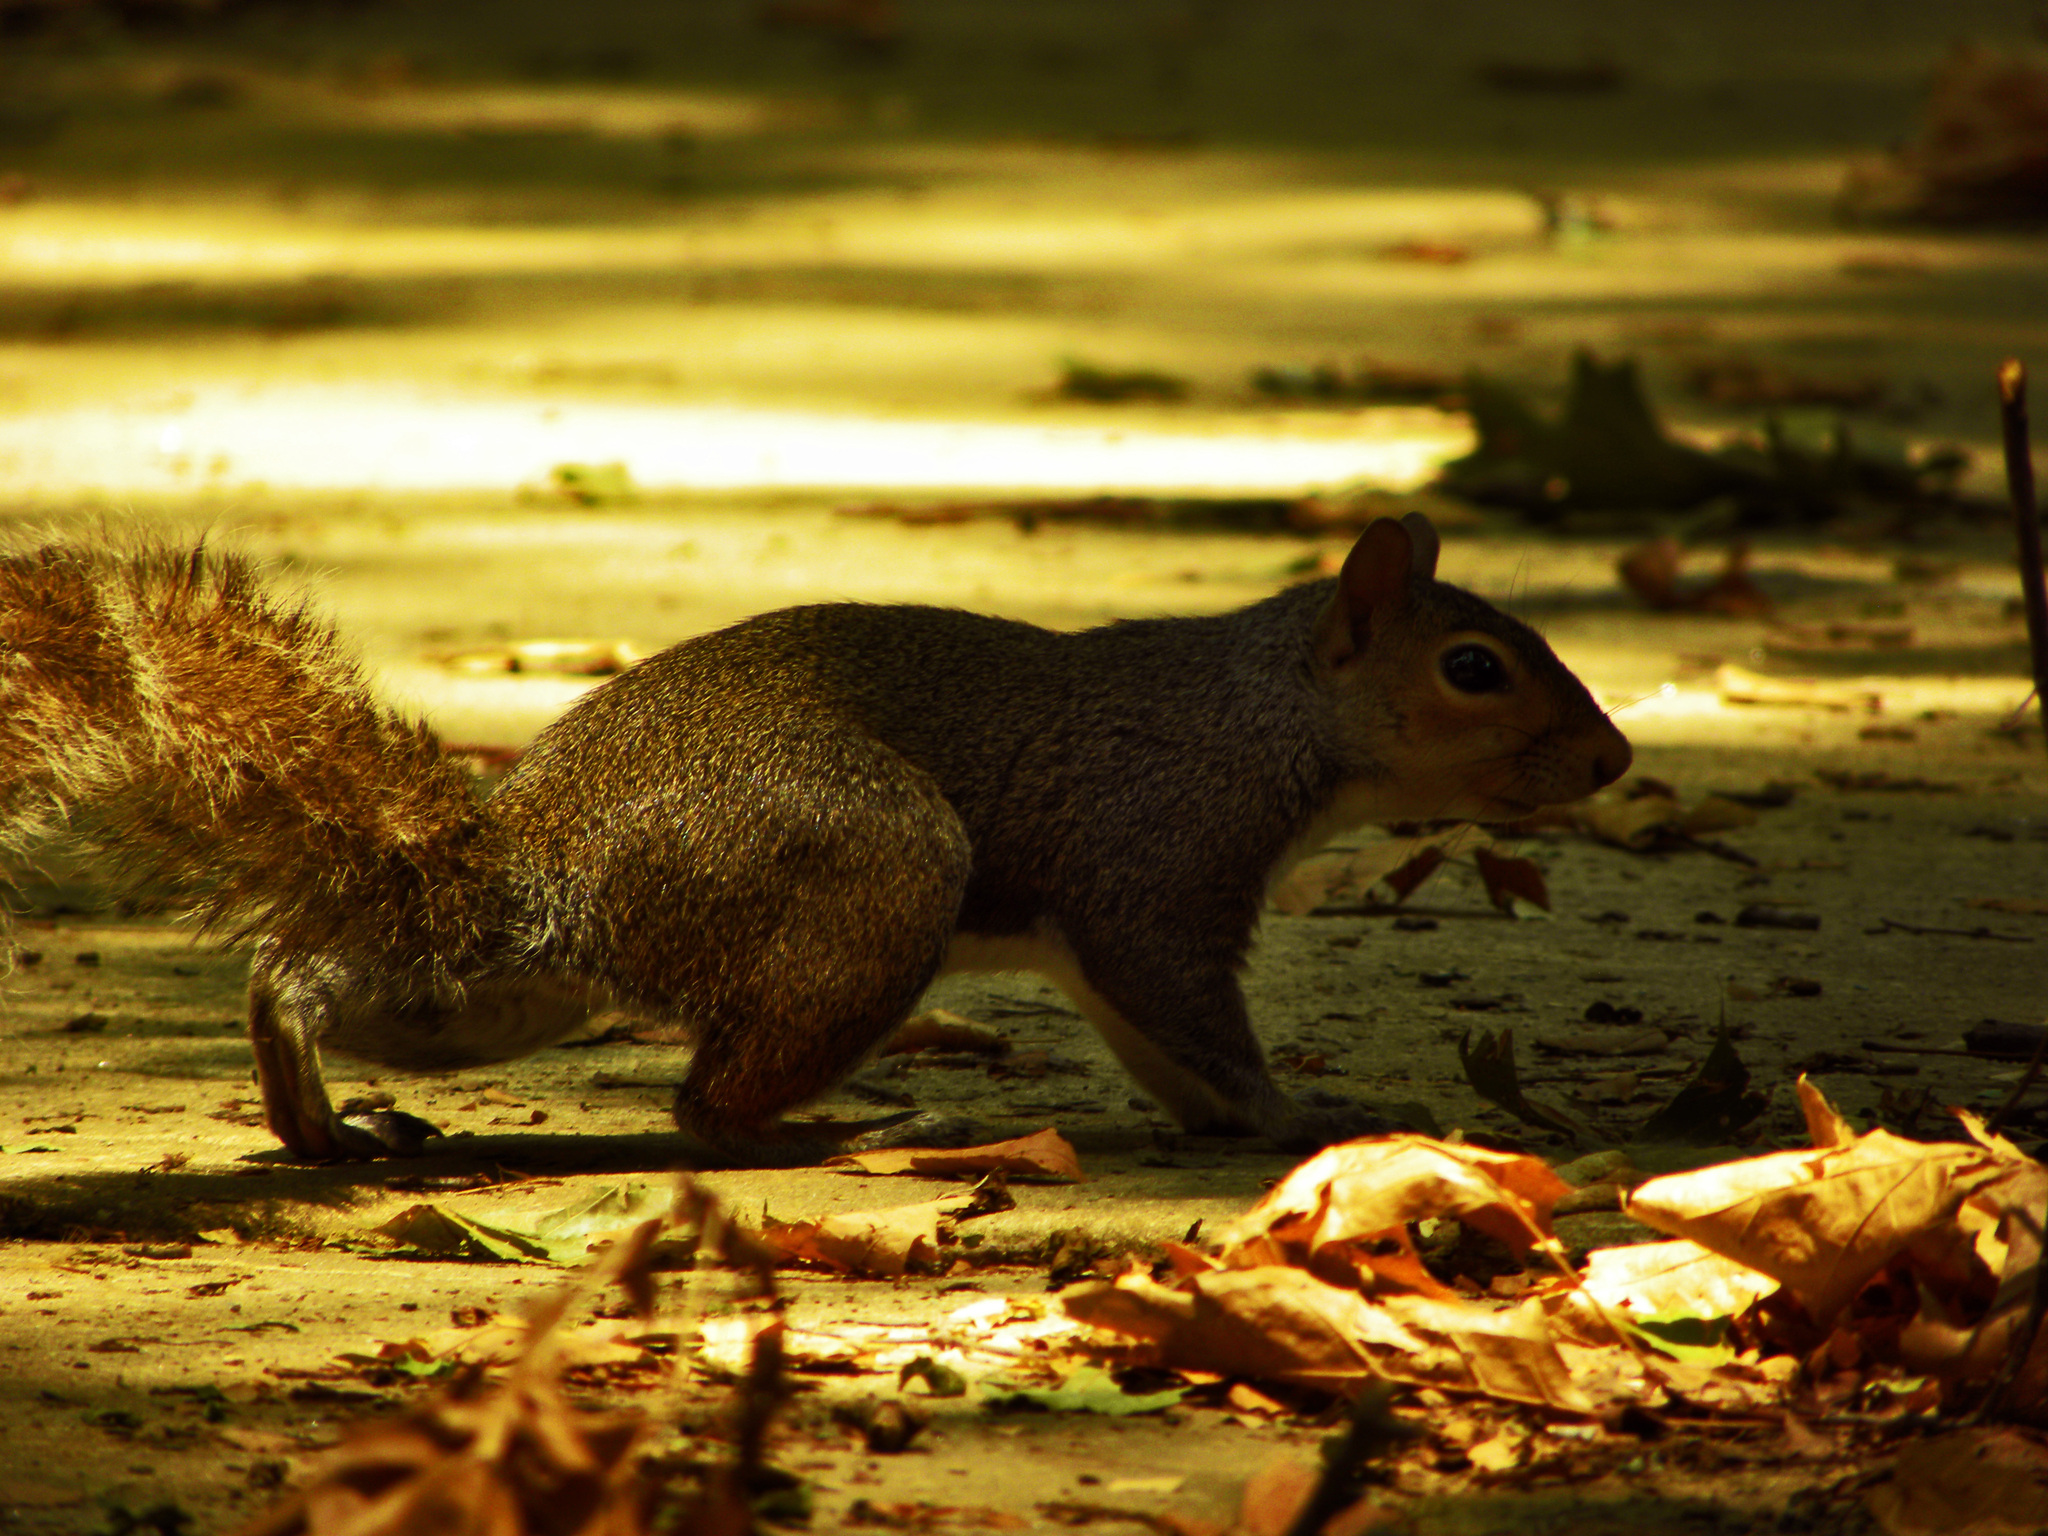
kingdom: Animalia
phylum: Chordata
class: Mammalia
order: Rodentia
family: Sciuridae
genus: Sciurus
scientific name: Sciurus carolinensis
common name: Eastern gray squirrel
